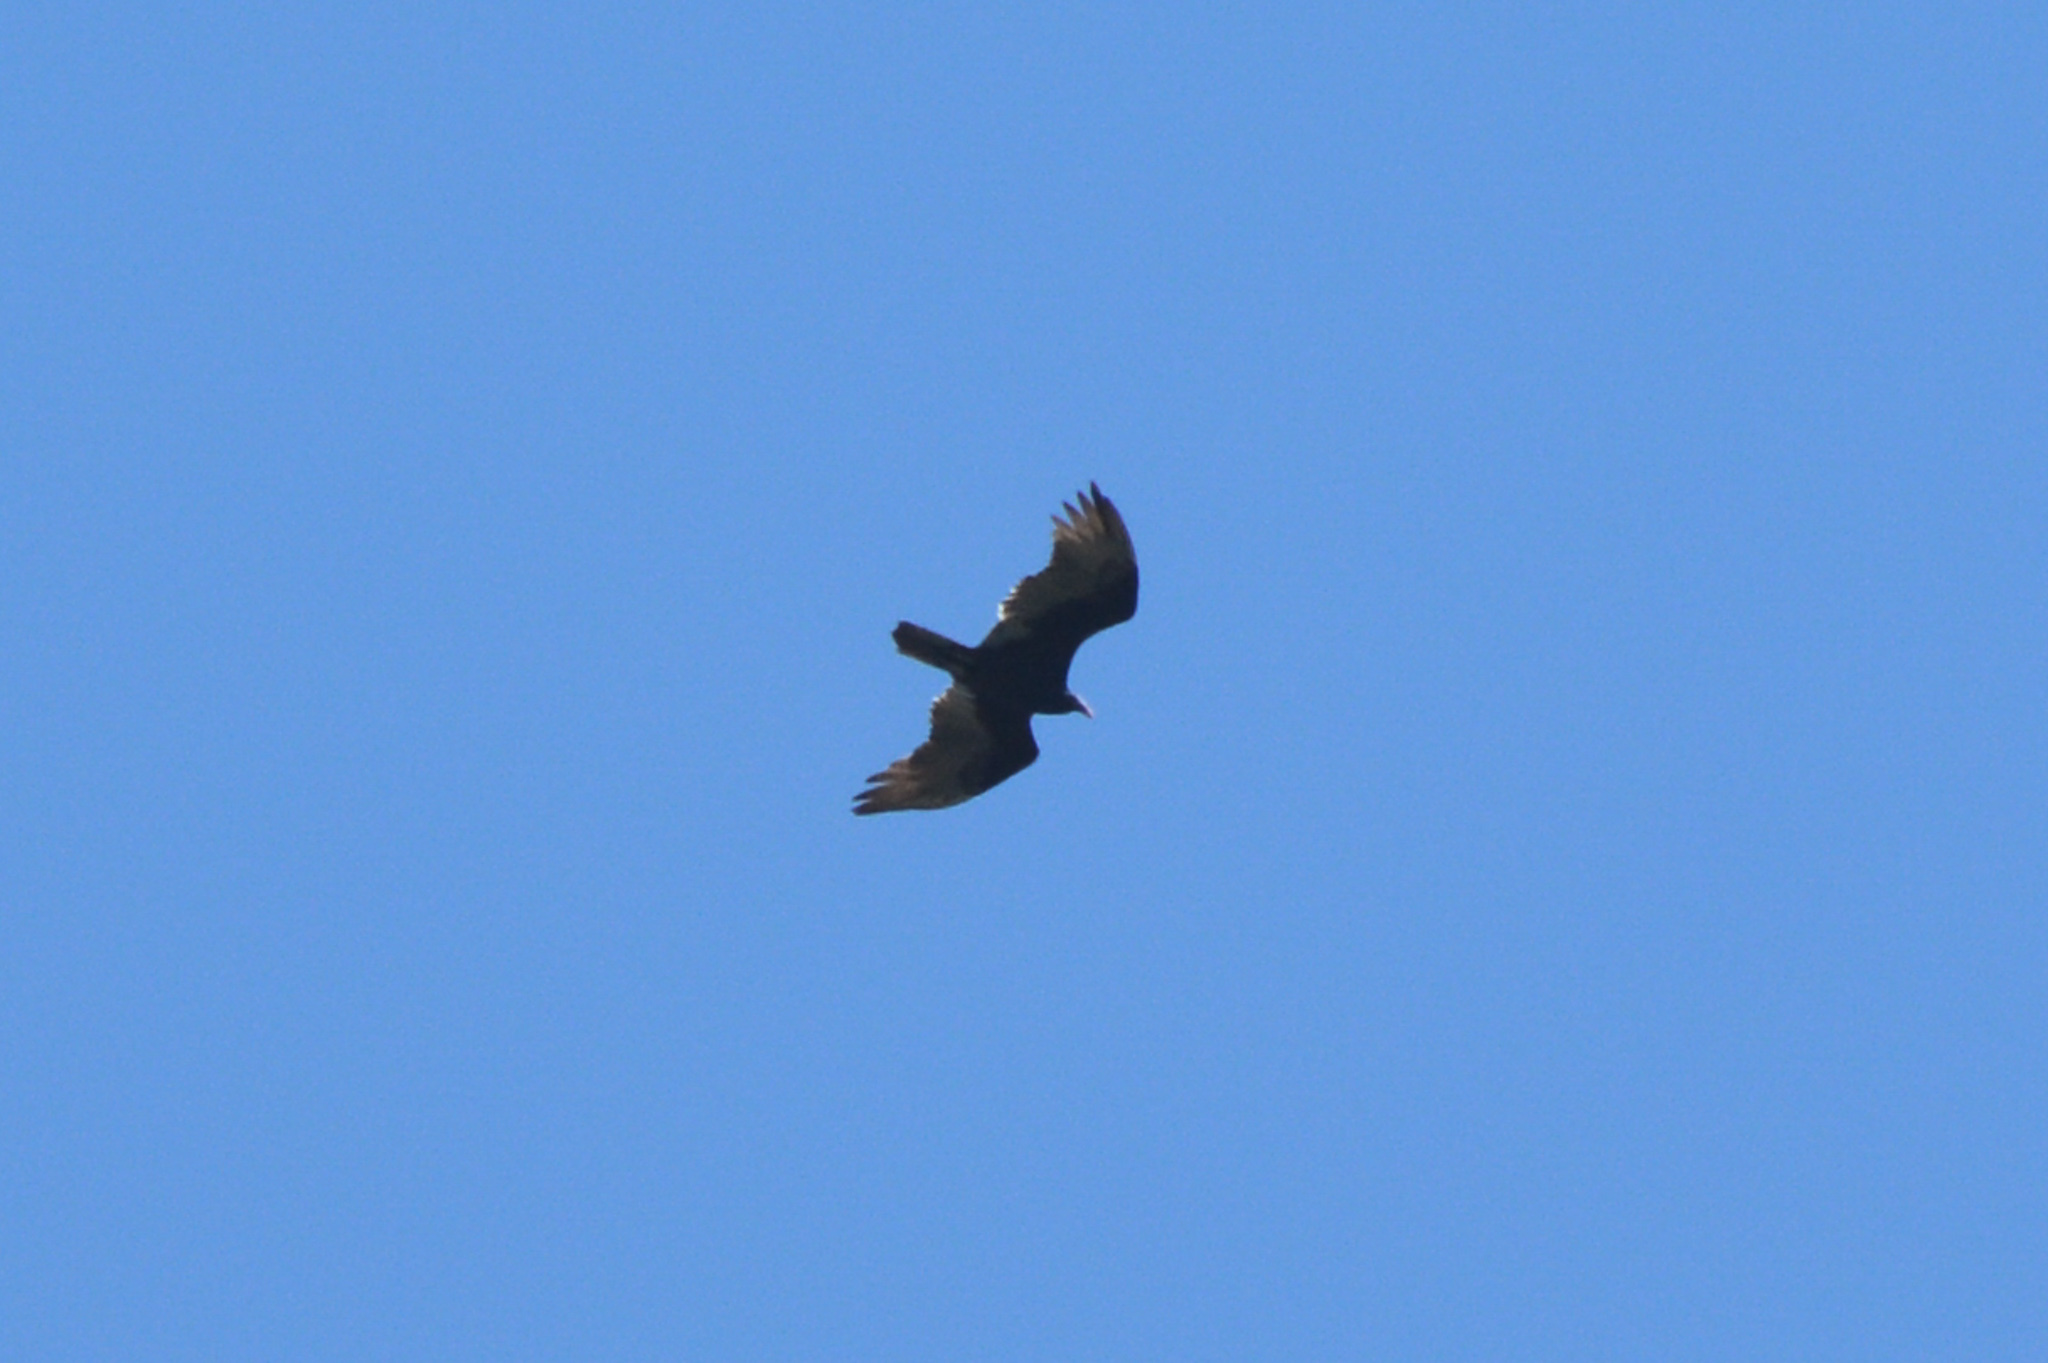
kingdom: Animalia
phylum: Chordata
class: Aves
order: Accipitriformes
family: Cathartidae
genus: Cathartes
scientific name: Cathartes aura
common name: Turkey vulture
